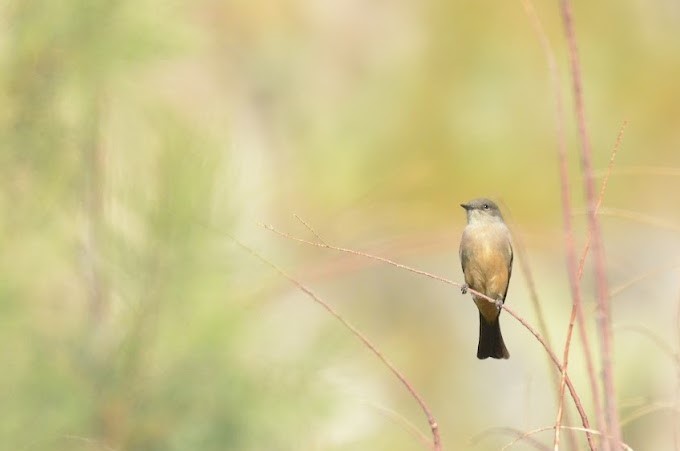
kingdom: Animalia
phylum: Chordata
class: Aves
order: Passeriformes
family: Tyrannidae
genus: Sayornis
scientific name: Sayornis saya
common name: Say's phoebe
